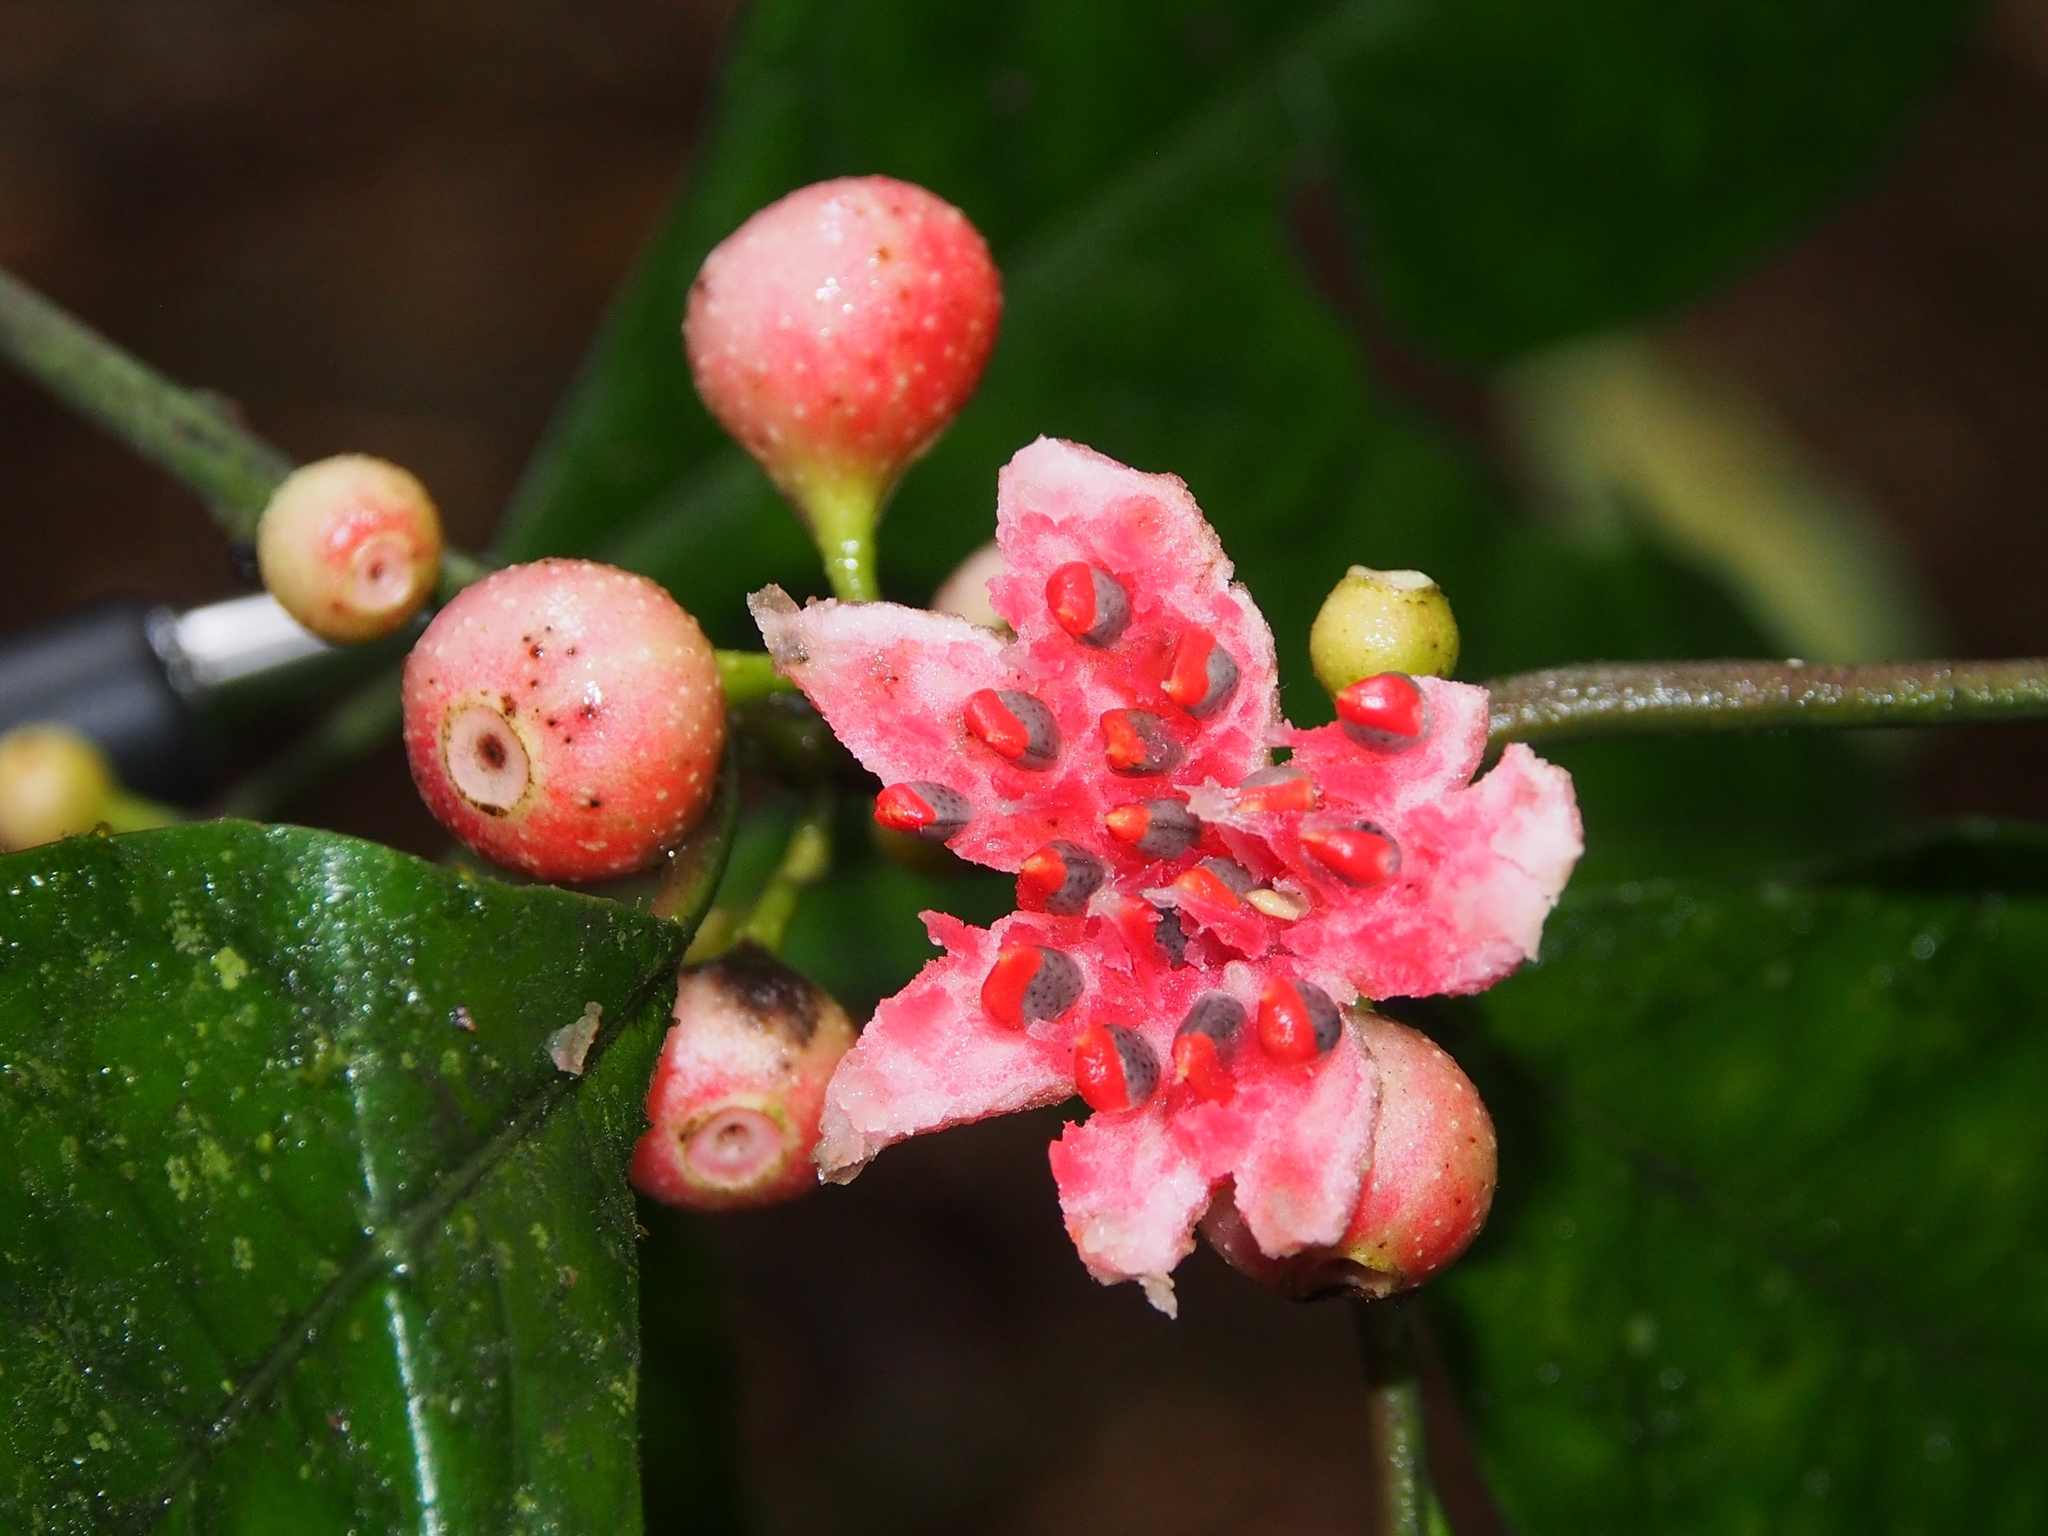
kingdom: Plantae
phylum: Tracheophyta
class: Magnoliopsida
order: Laurales
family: Siparunaceae
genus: Siparuna
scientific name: Siparuna thecaphora
